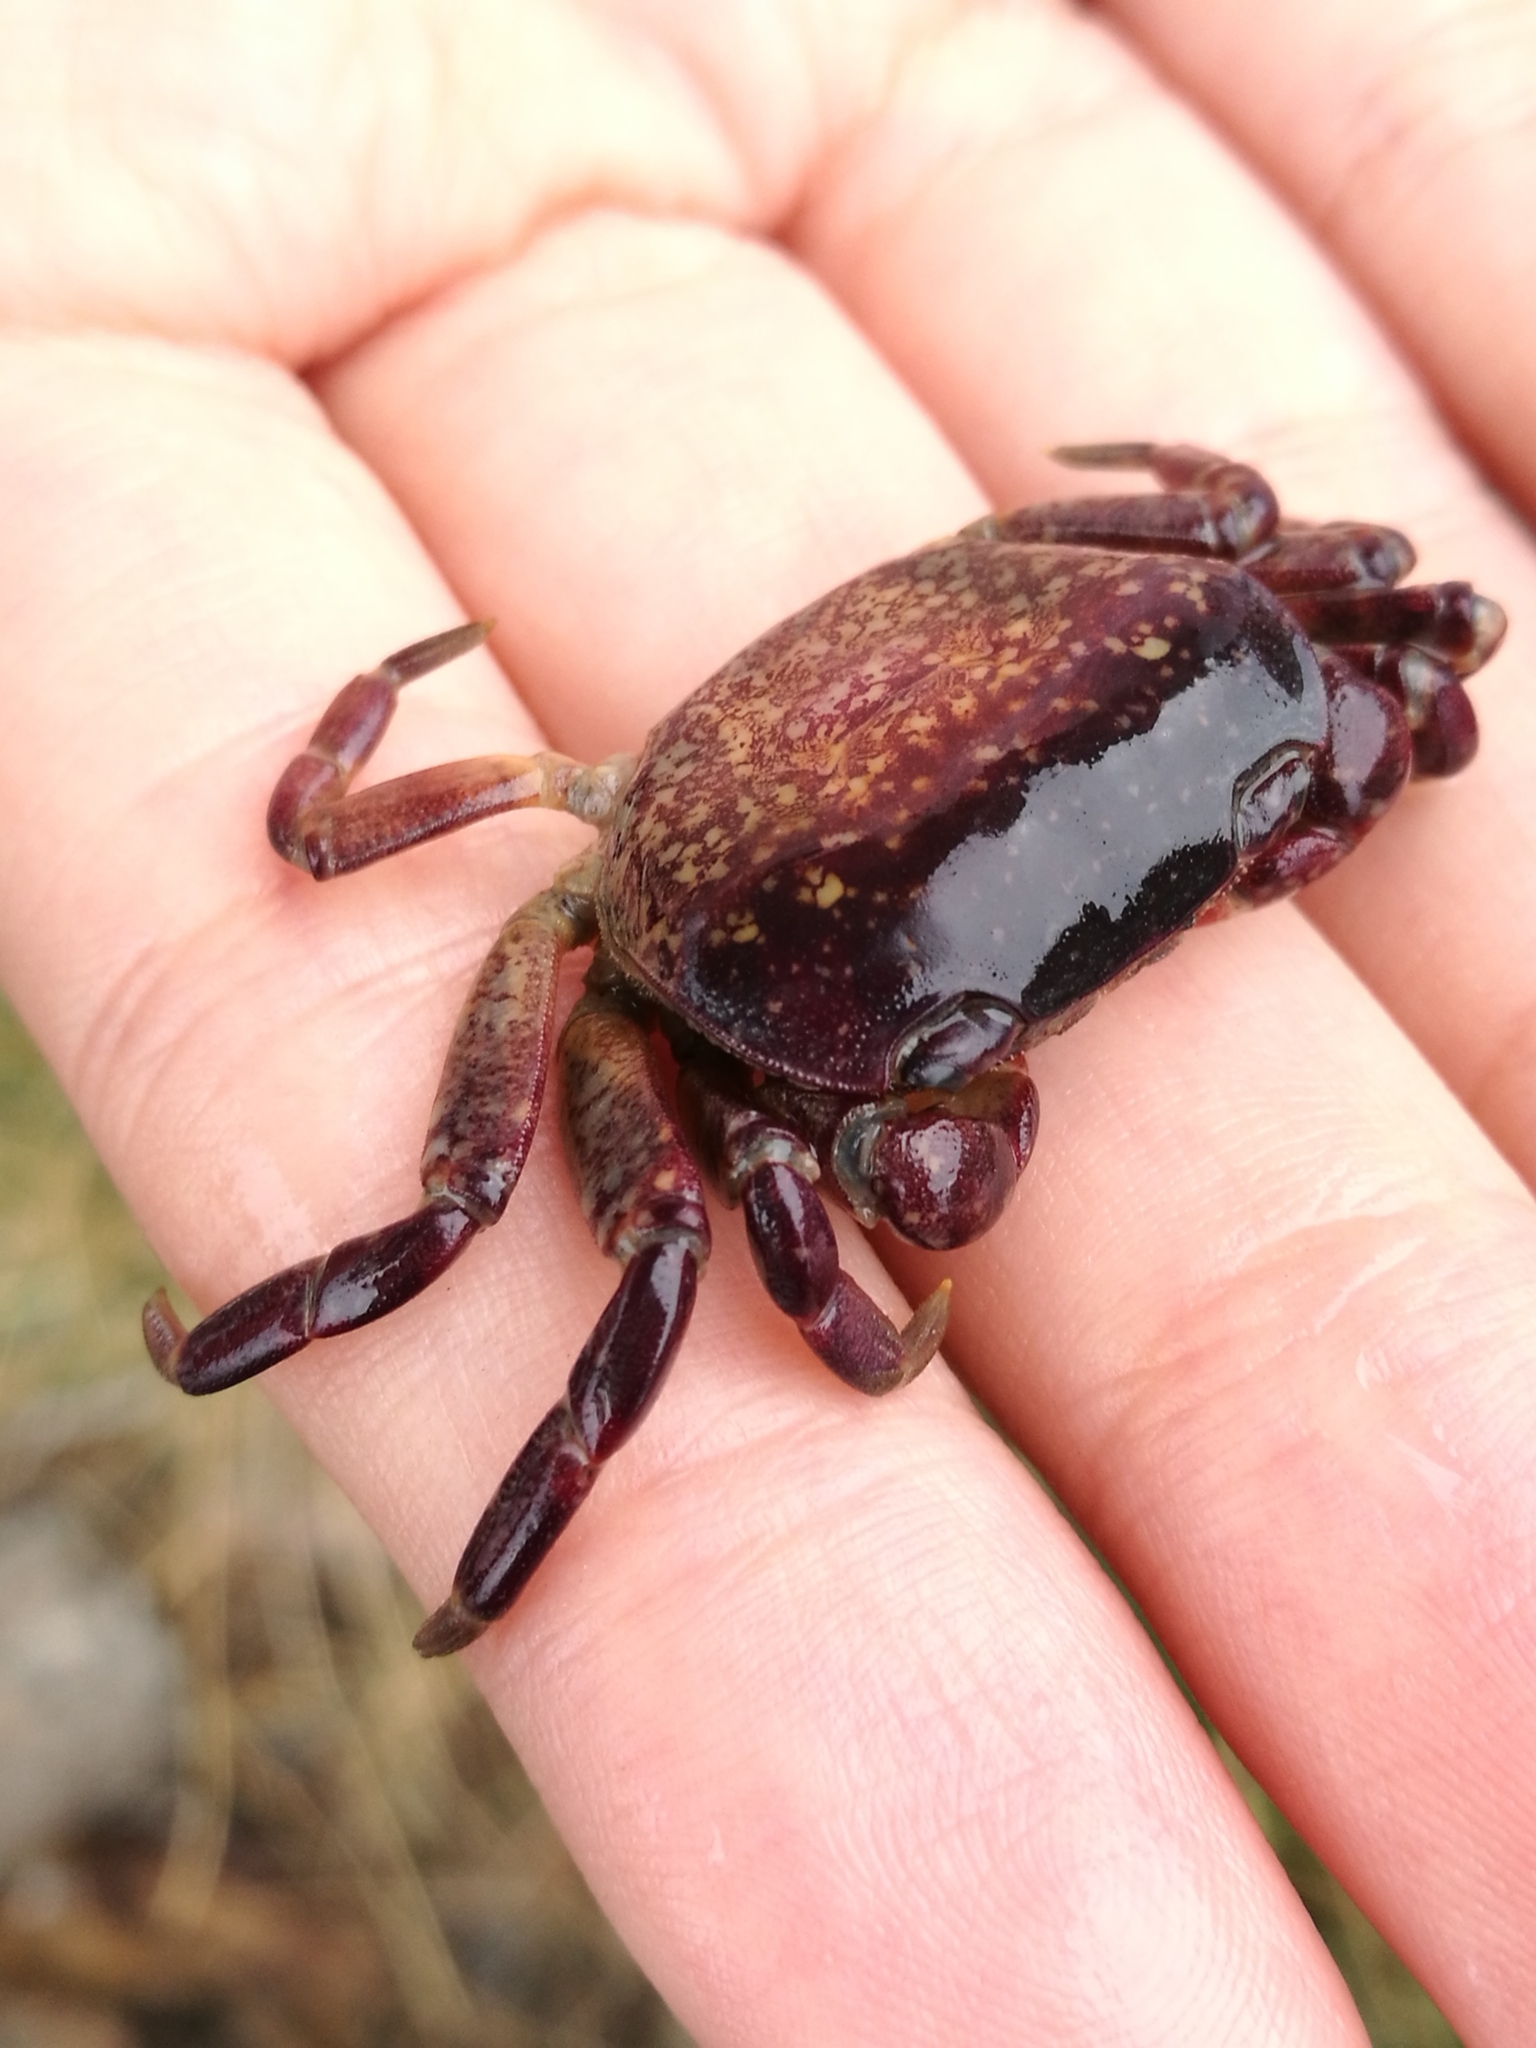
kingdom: Animalia
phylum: Arthropoda
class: Malacostraca
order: Decapoda
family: Varunidae
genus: Cyclograpsus
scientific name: Cyclograpsus lavauxi
